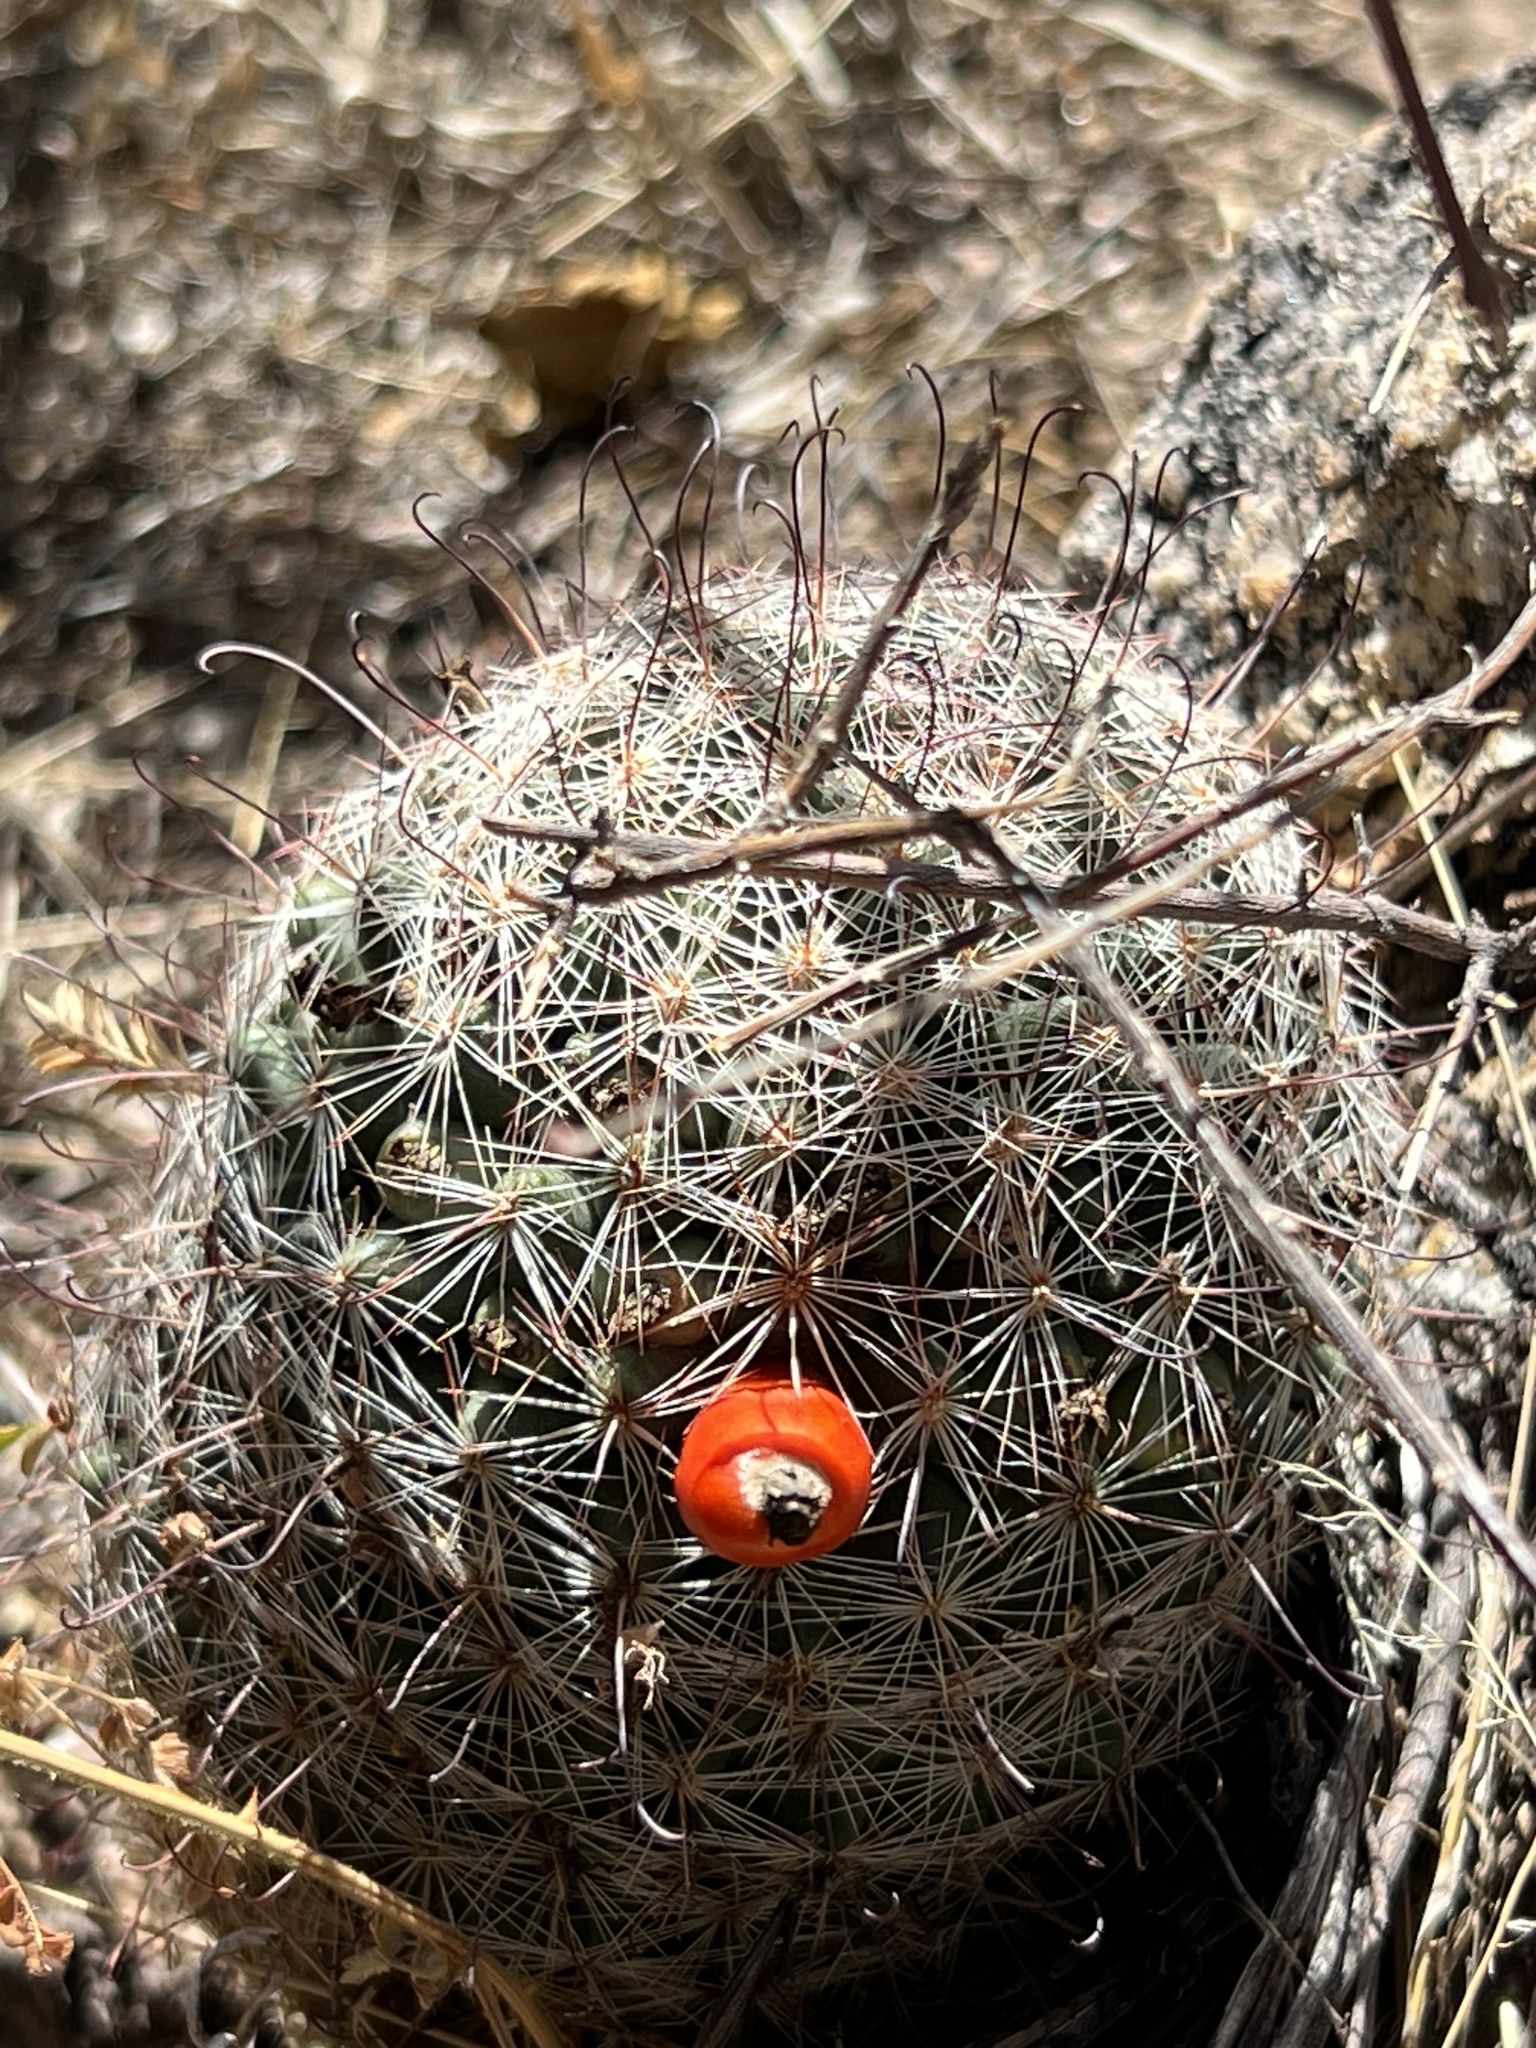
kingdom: Plantae
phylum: Tracheophyta
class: Magnoliopsida
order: Caryophyllales
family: Cactaceae
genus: Cochemiea
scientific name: Cochemiea grahamii
